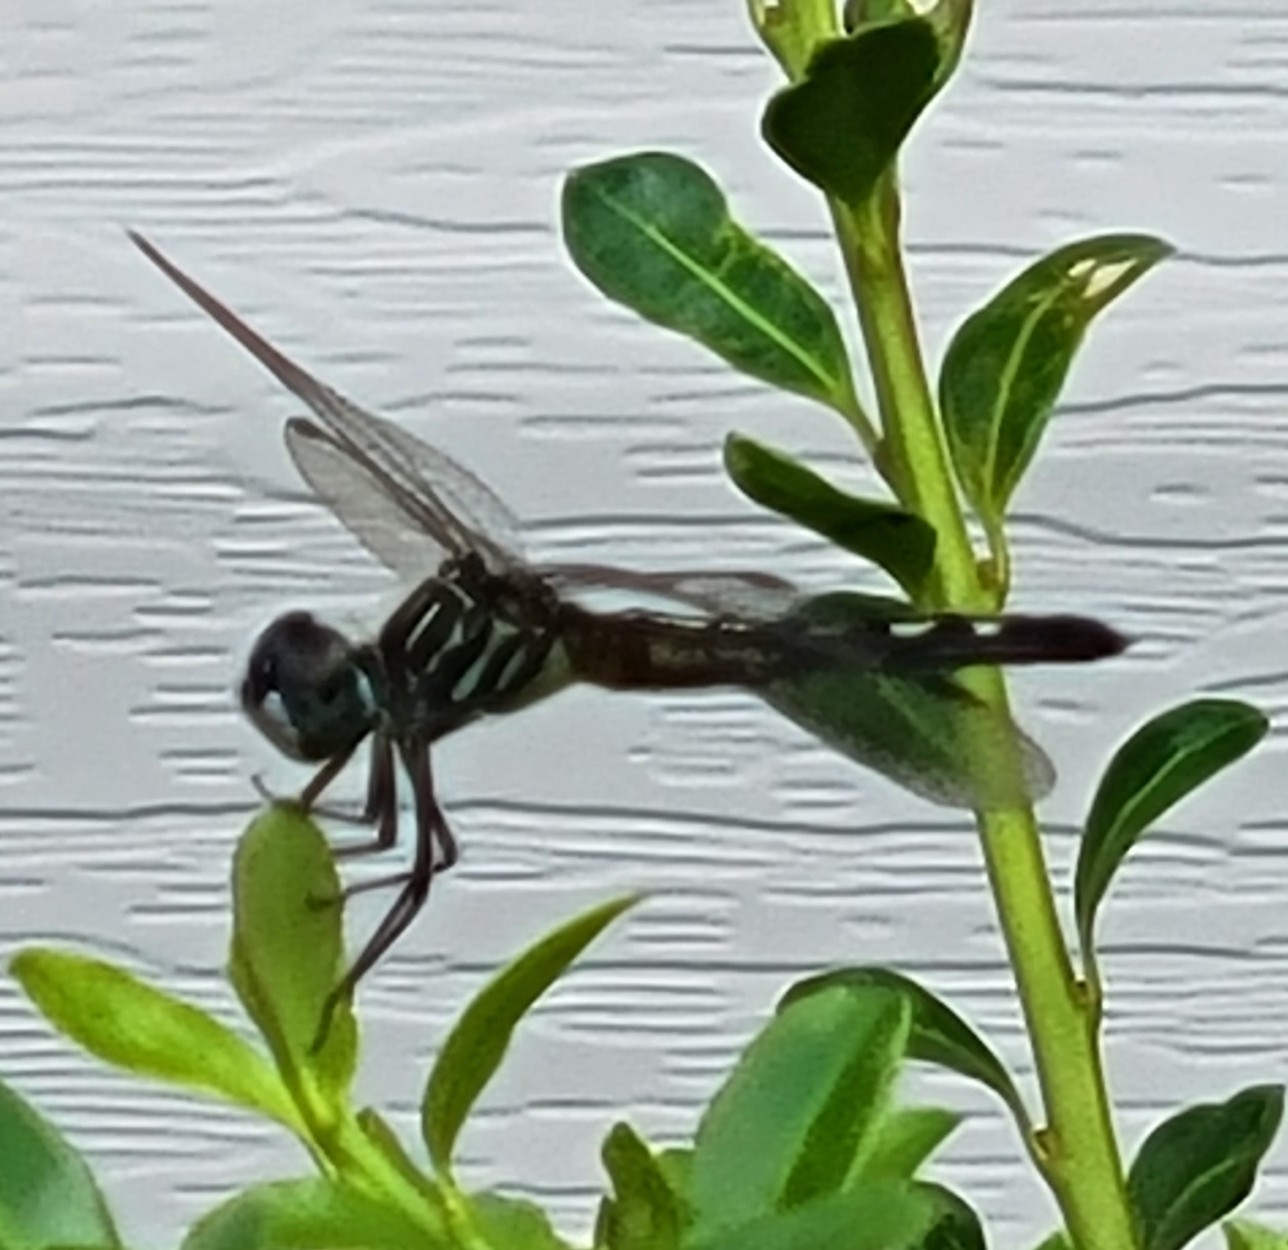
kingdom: Animalia
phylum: Arthropoda
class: Insecta
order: Odonata
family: Libellulidae
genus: Pachydiplax
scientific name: Pachydiplax longipennis
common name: Blue dasher
